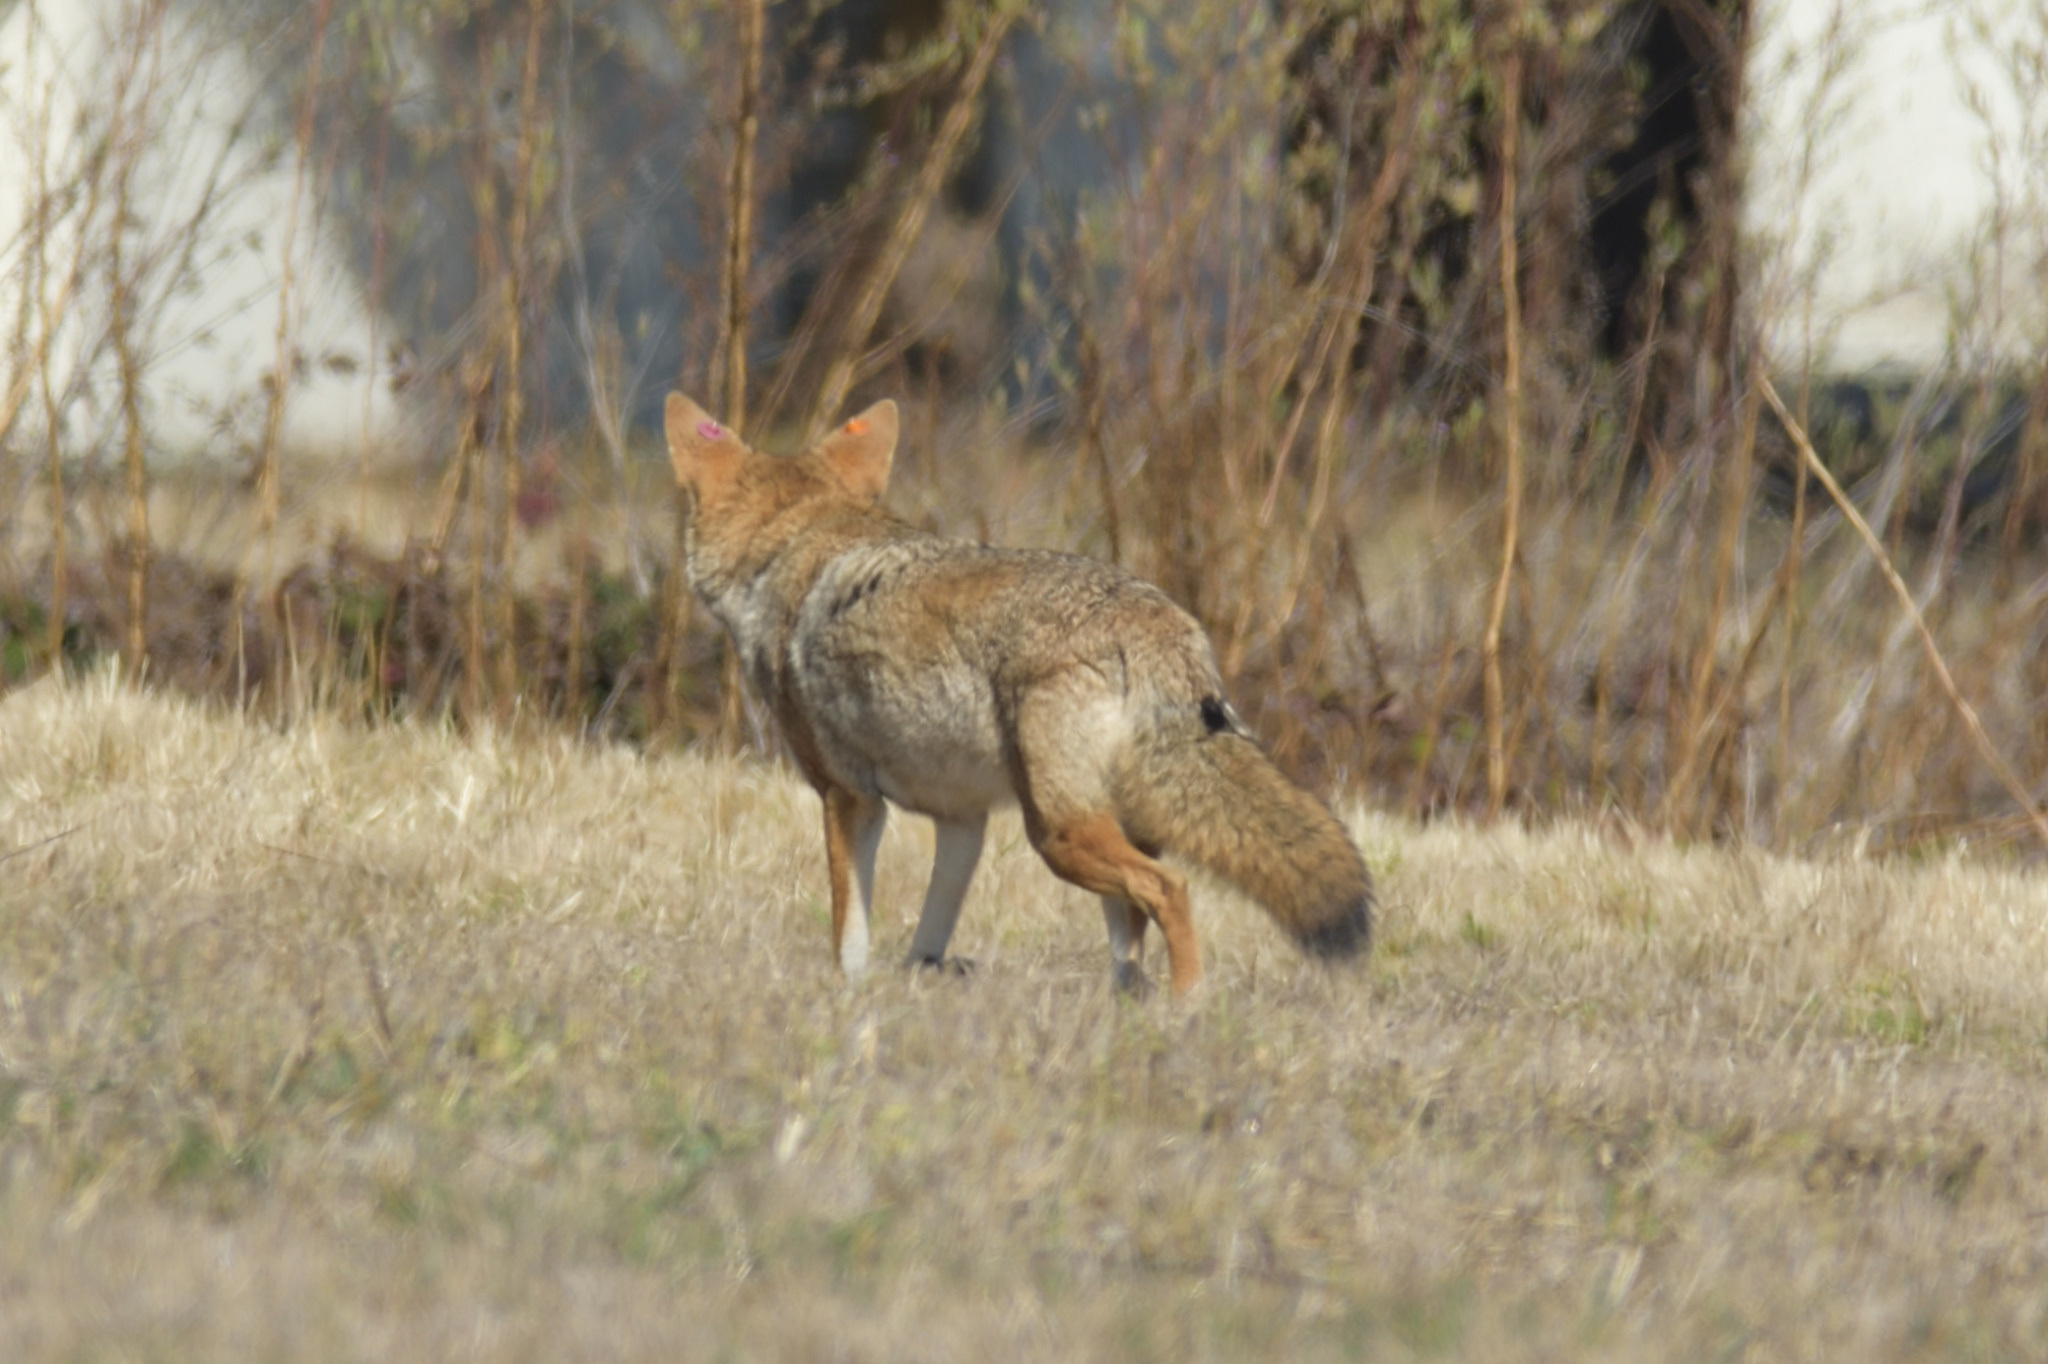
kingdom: Animalia
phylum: Chordata
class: Mammalia
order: Carnivora
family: Canidae
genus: Canis
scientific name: Canis latrans
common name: Coyote
